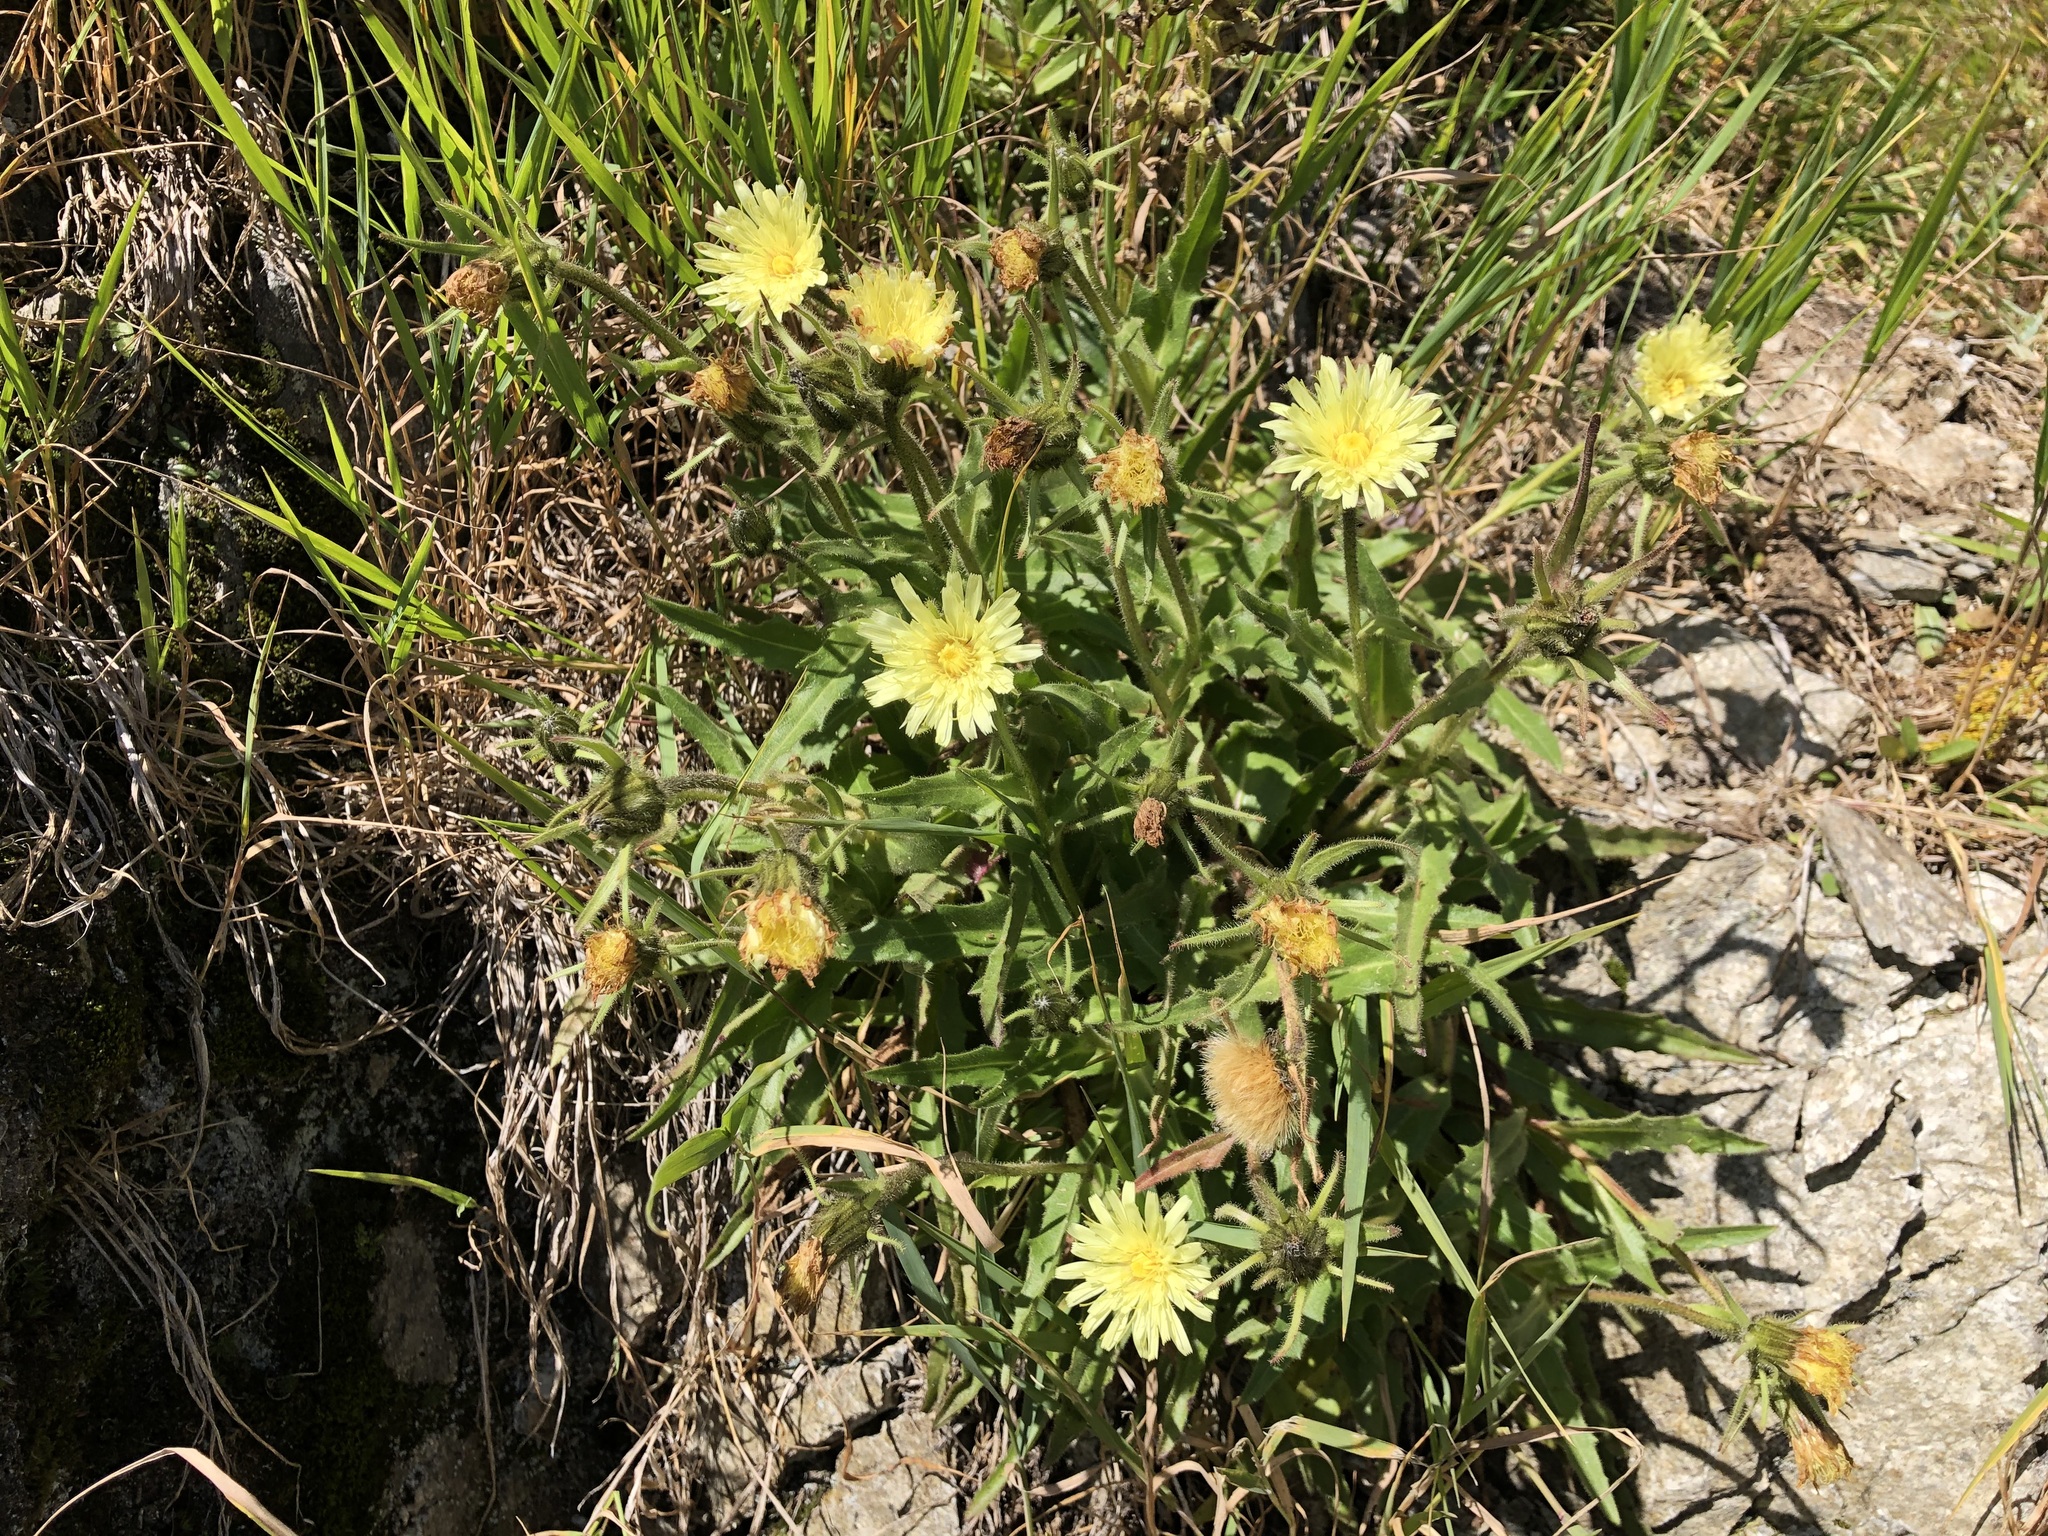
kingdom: Plantae
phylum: Tracheophyta
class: Magnoliopsida
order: Asterales
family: Asteraceae
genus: Schlagintweitia
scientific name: Schlagintweitia intybacea
